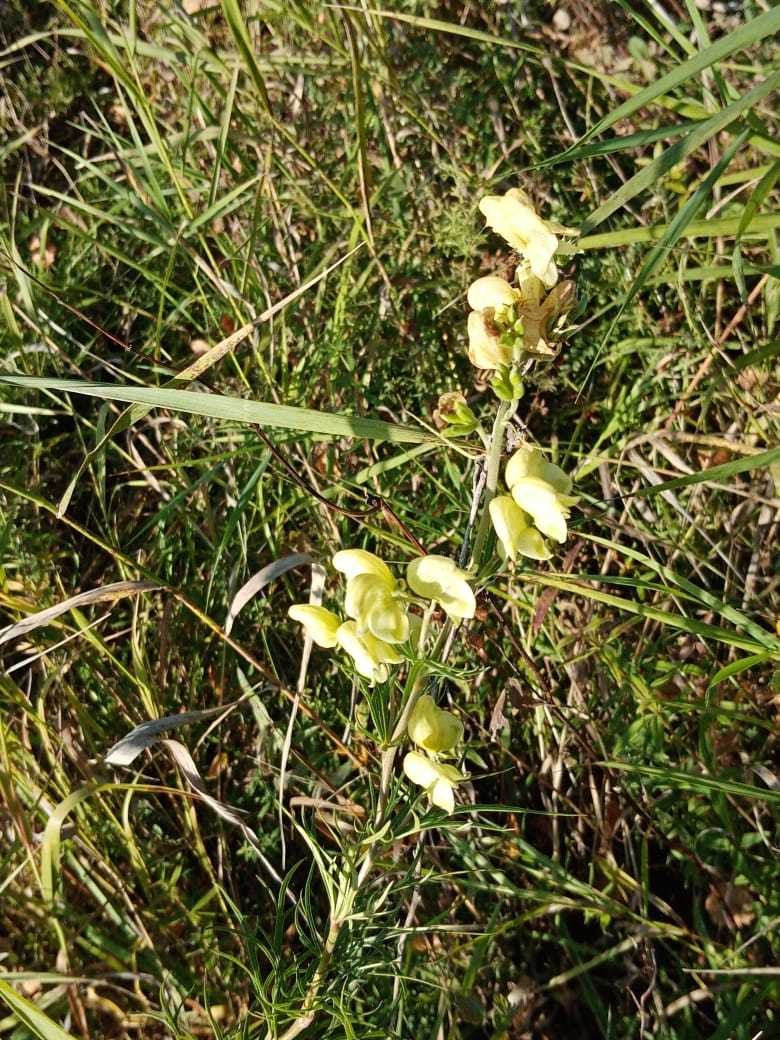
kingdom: Plantae
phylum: Tracheophyta
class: Magnoliopsida
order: Ranunculales
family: Ranunculaceae
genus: Aconitum
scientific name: Aconitum anthora
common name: Yellow monkshood
